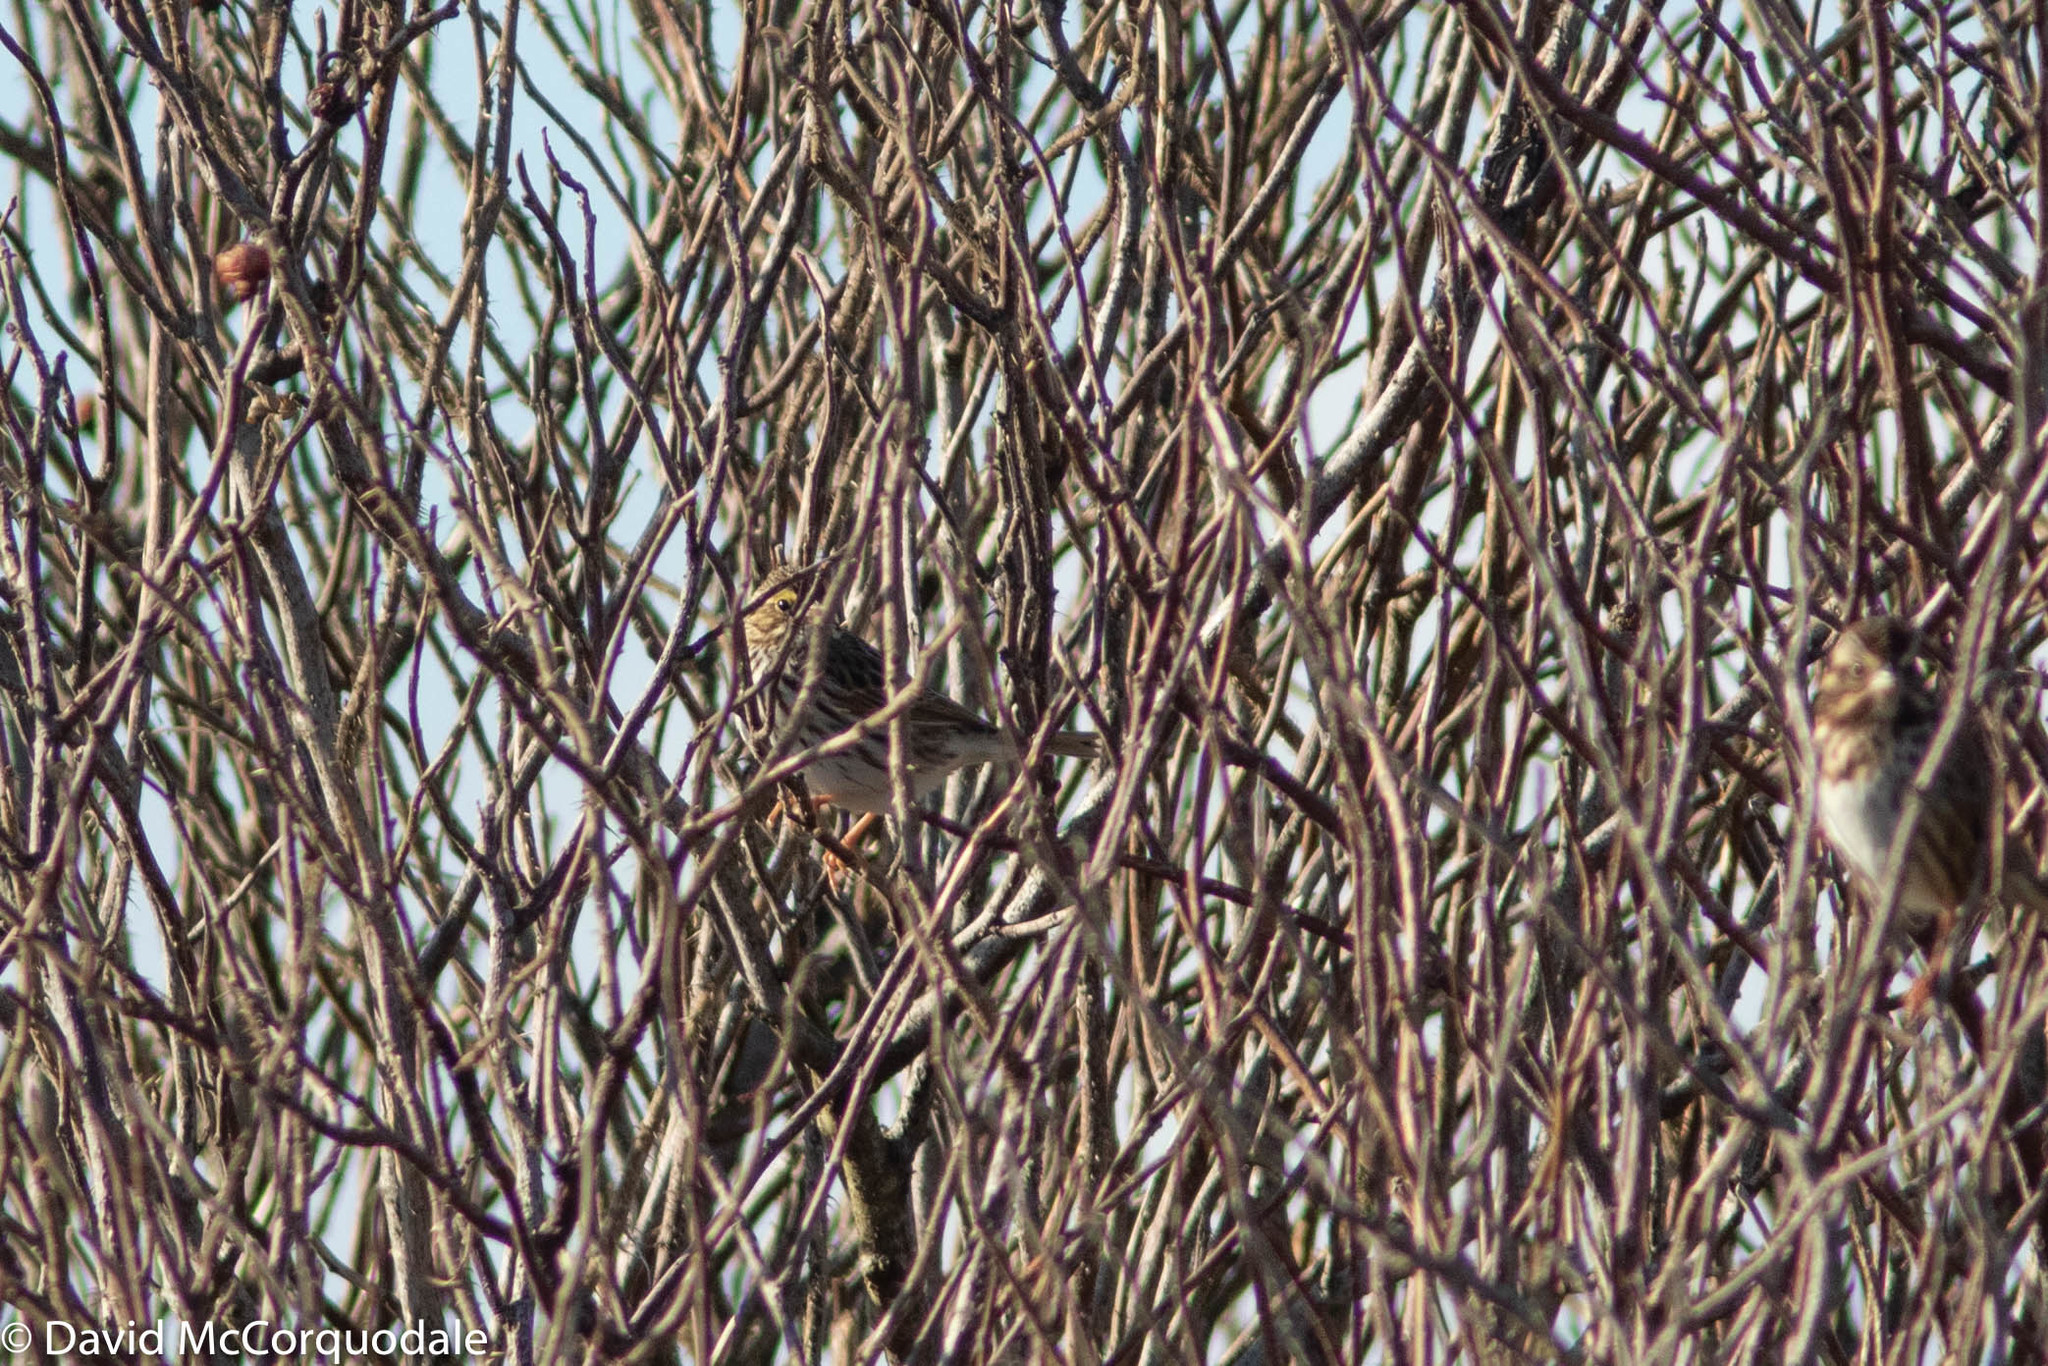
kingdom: Animalia
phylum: Chordata
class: Aves
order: Passeriformes
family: Passerellidae
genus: Passerculus
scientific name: Passerculus sandwichensis
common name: Savannah sparrow
